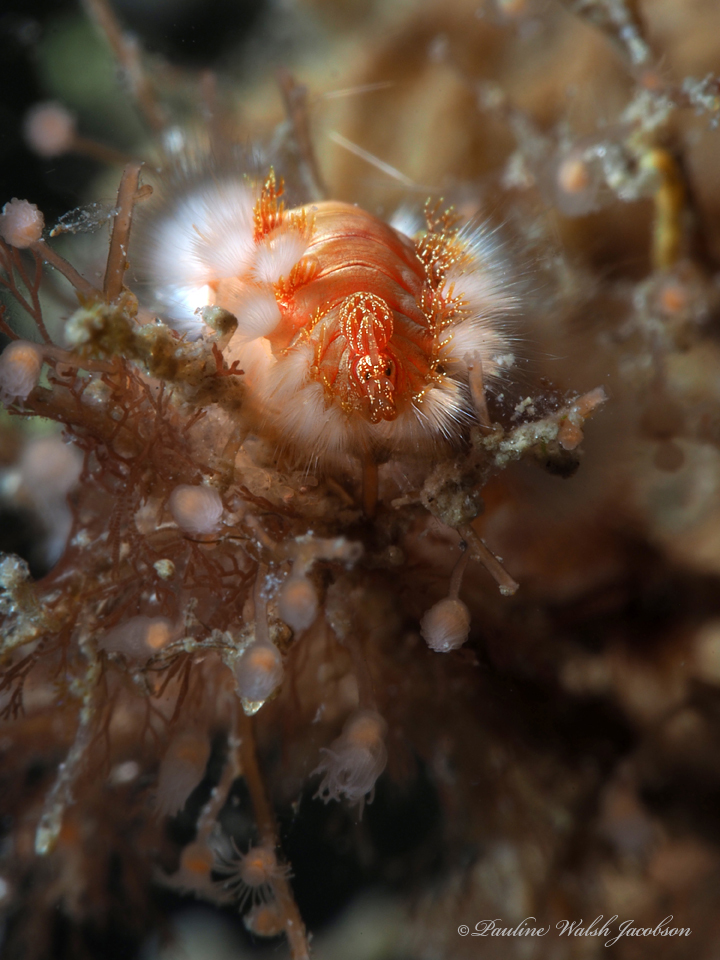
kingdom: Animalia
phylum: Annelida
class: Polychaeta
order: Amphinomida
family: Amphinomidae
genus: Hermodice
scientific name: Hermodice carunculata
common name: Bearded fireworm
